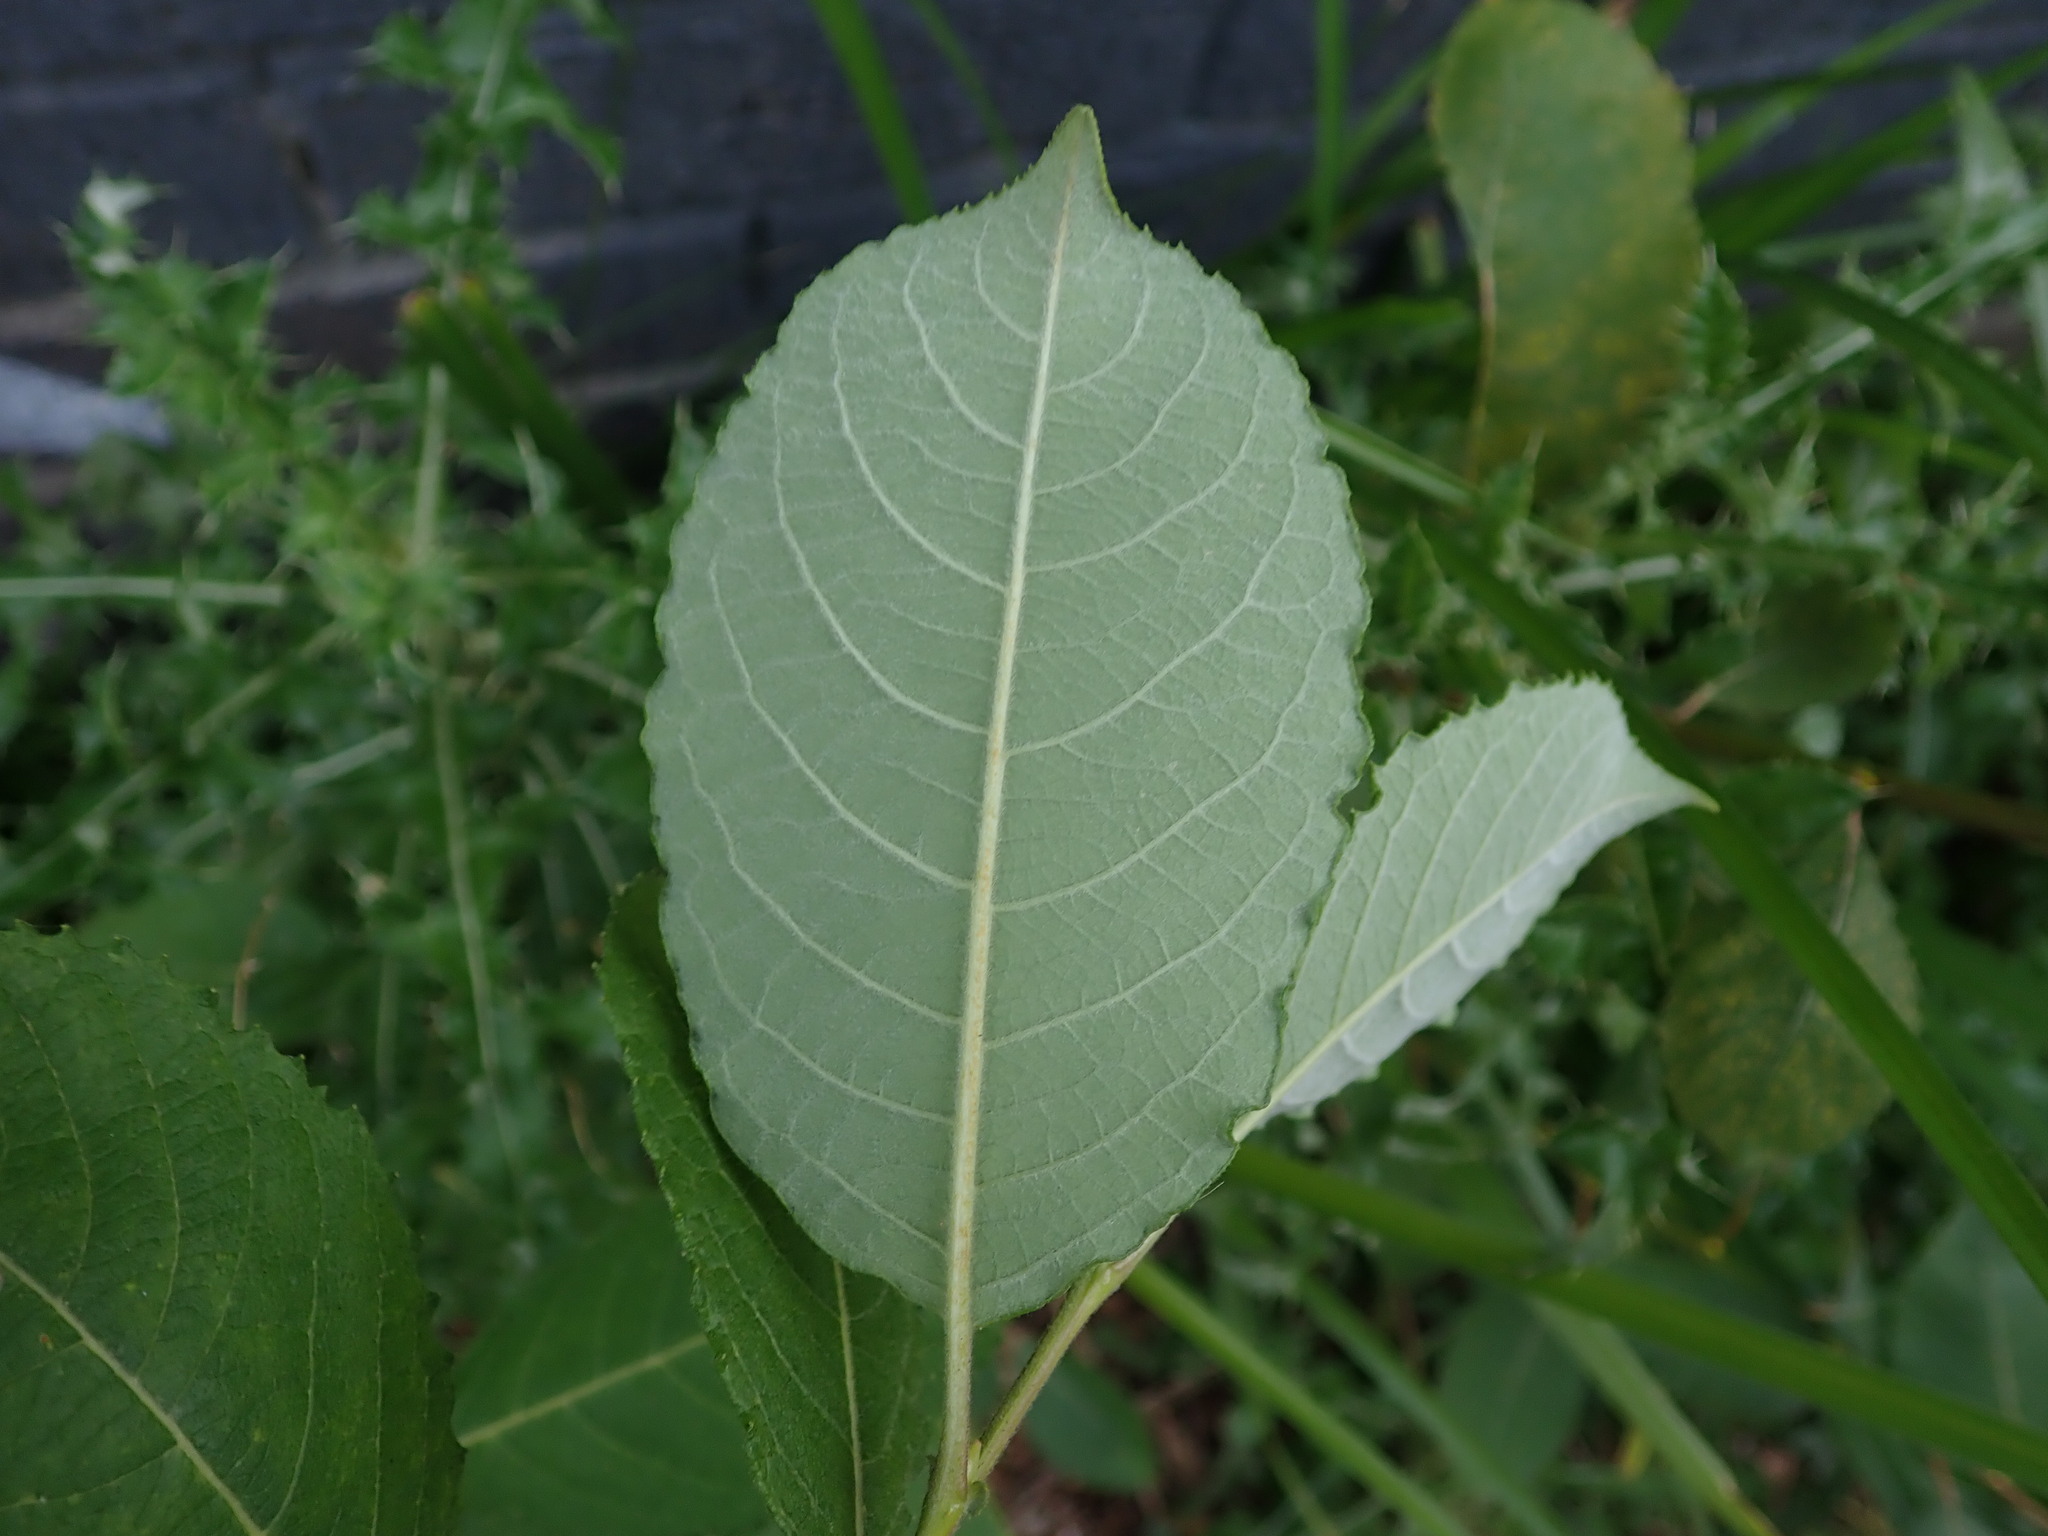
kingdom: Plantae
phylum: Tracheophyta
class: Magnoliopsida
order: Malpighiales
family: Salicaceae
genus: Salix
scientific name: Salix caprea
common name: Goat willow
